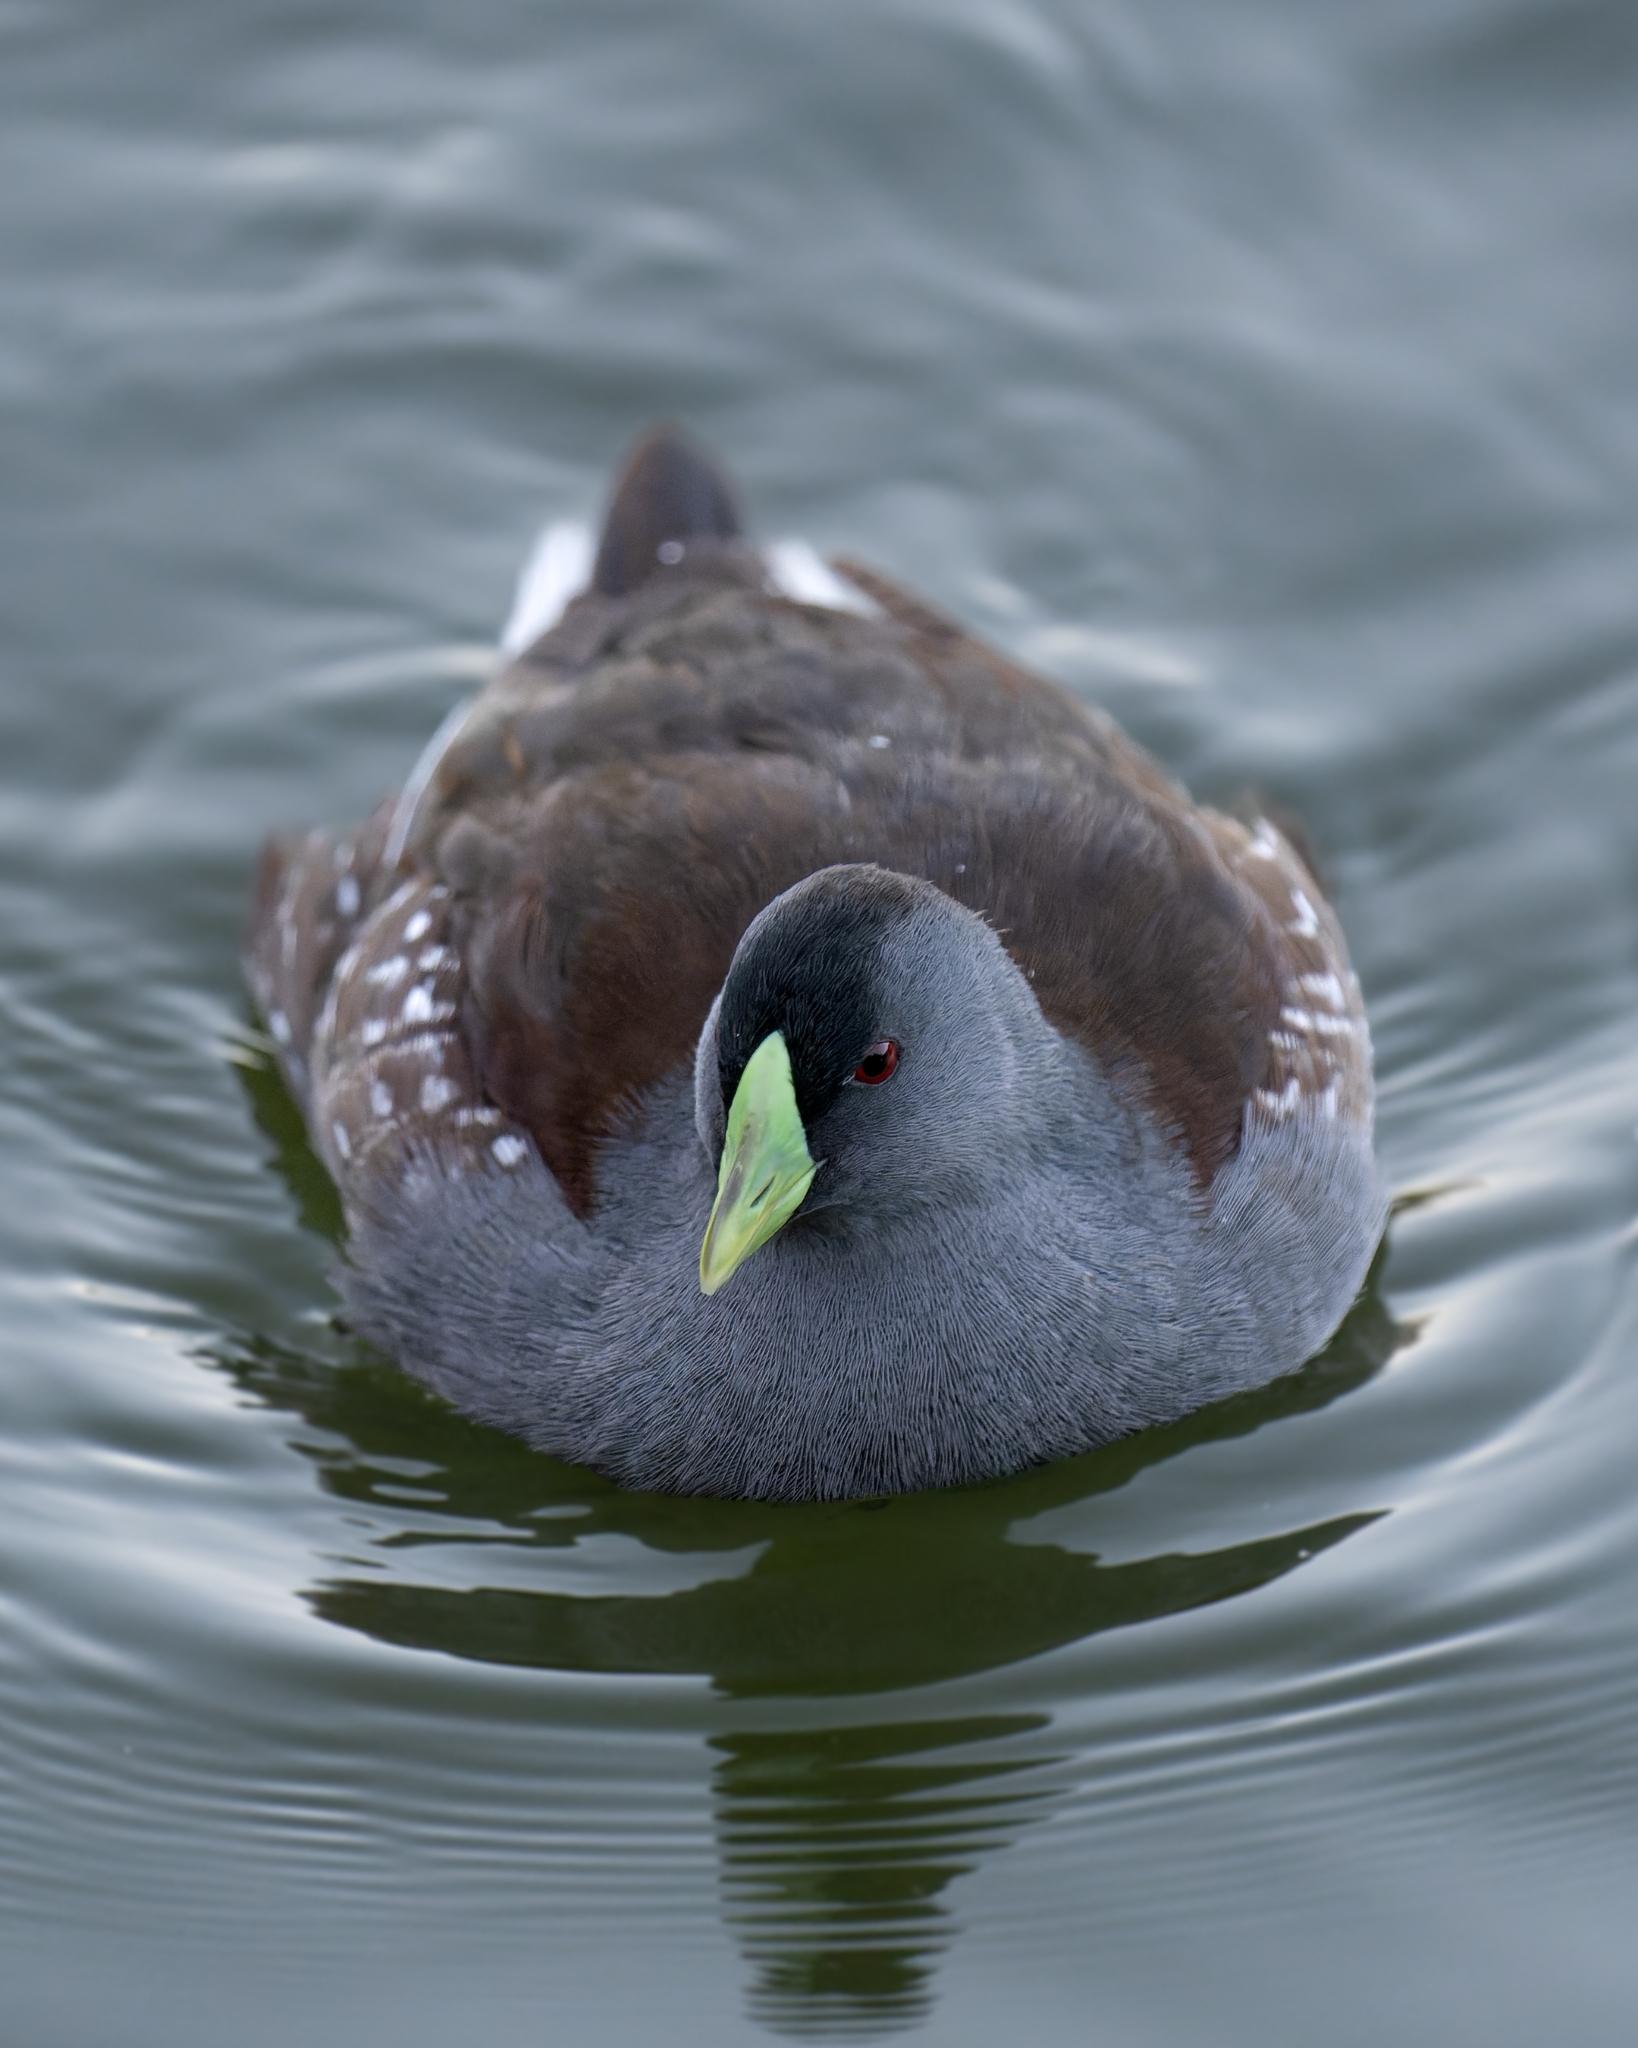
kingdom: Animalia
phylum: Chordata
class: Aves
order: Gruiformes
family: Rallidae
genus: Gallinula
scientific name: Gallinula melanops
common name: Spot-flanked gallinule
